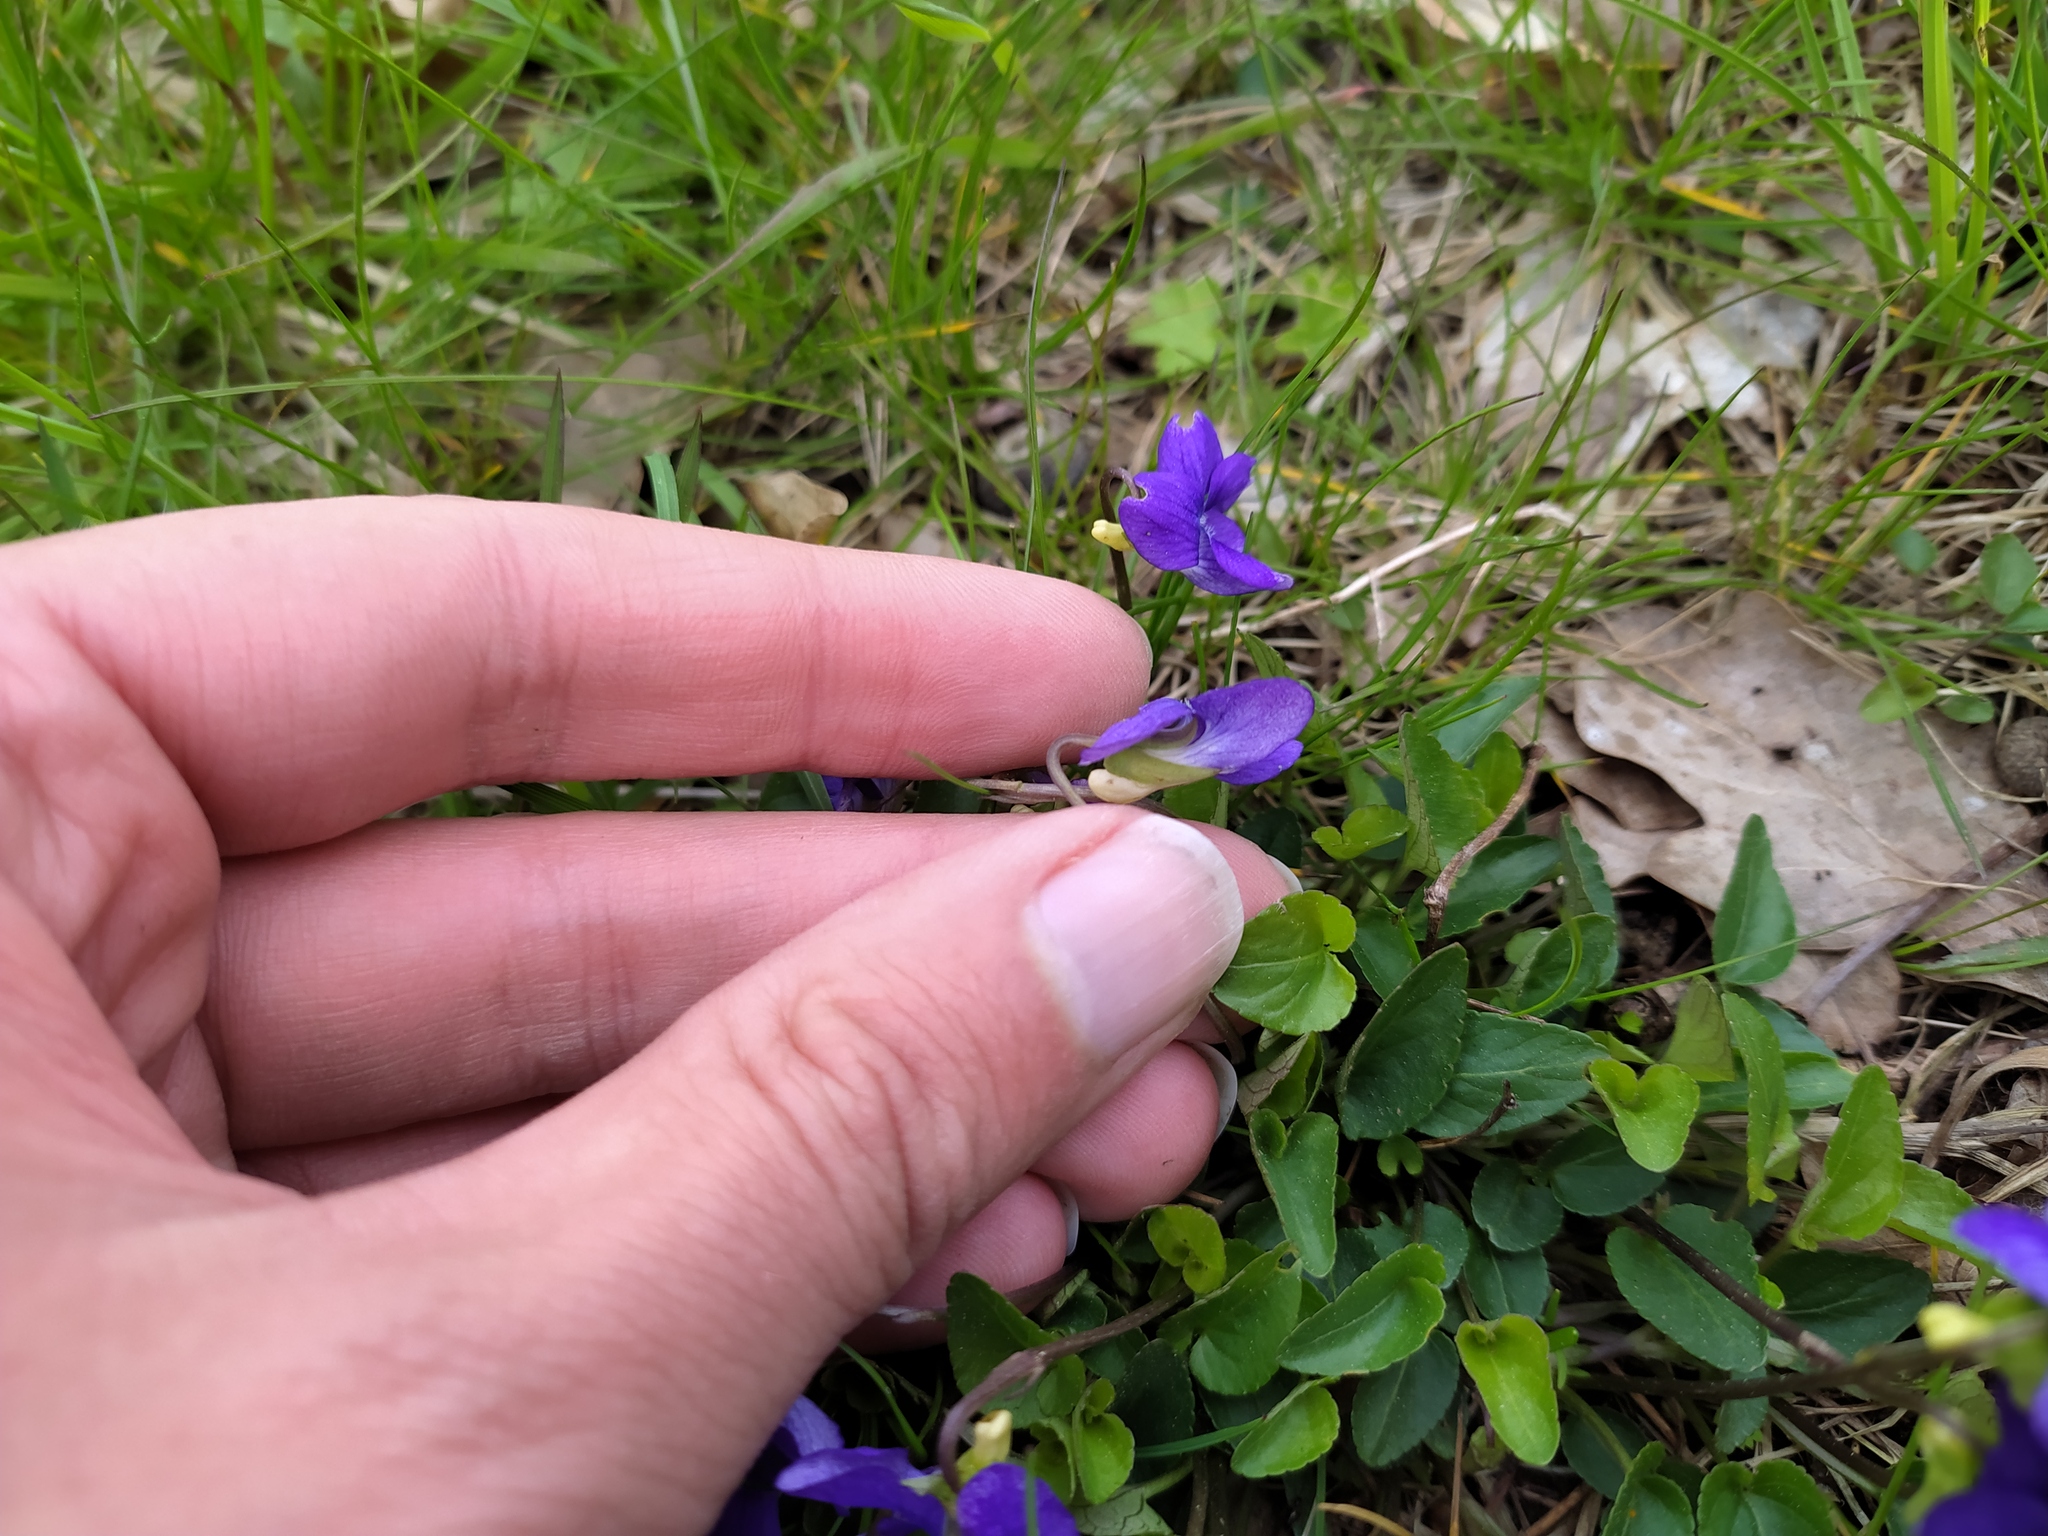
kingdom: Plantae
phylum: Tracheophyta
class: Magnoliopsida
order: Malpighiales
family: Violaceae
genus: Viola
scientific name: Viola canina
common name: Heath dog-violet
